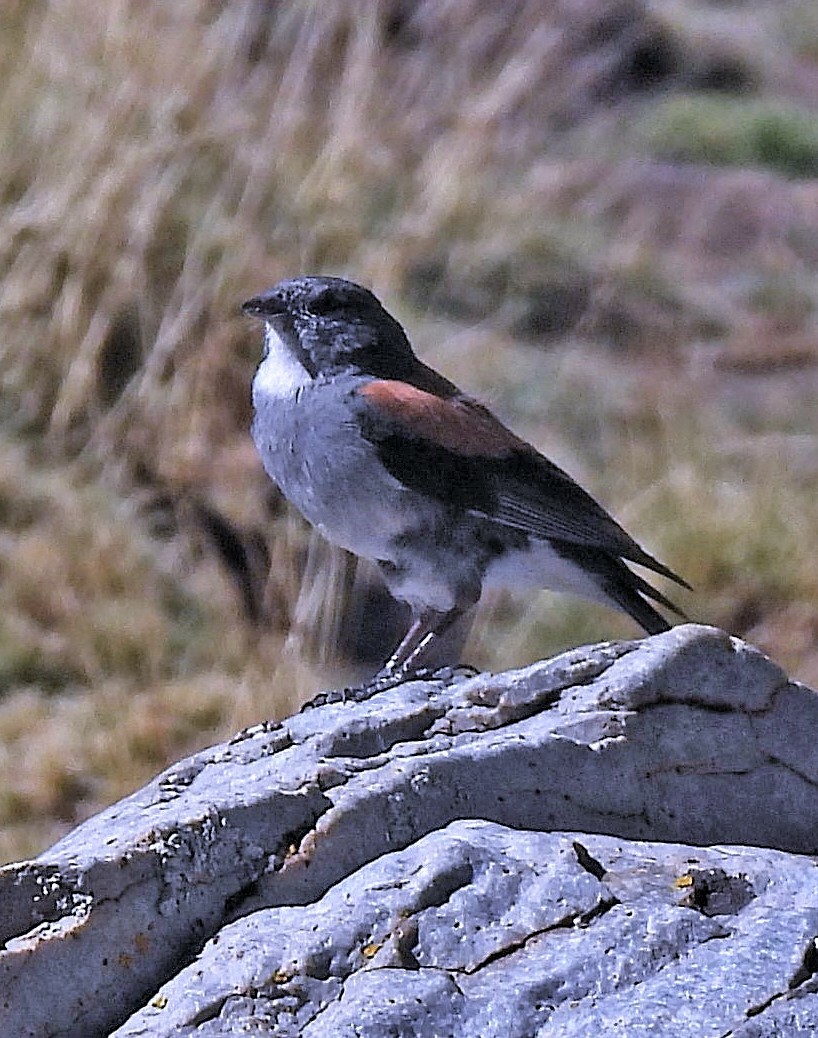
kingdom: Animalia
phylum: Chordata
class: Aves
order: Passeriformes
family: Thraupidae
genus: Idiopsar
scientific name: Idiopsar dorsalis
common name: Red-backed sierra finch
